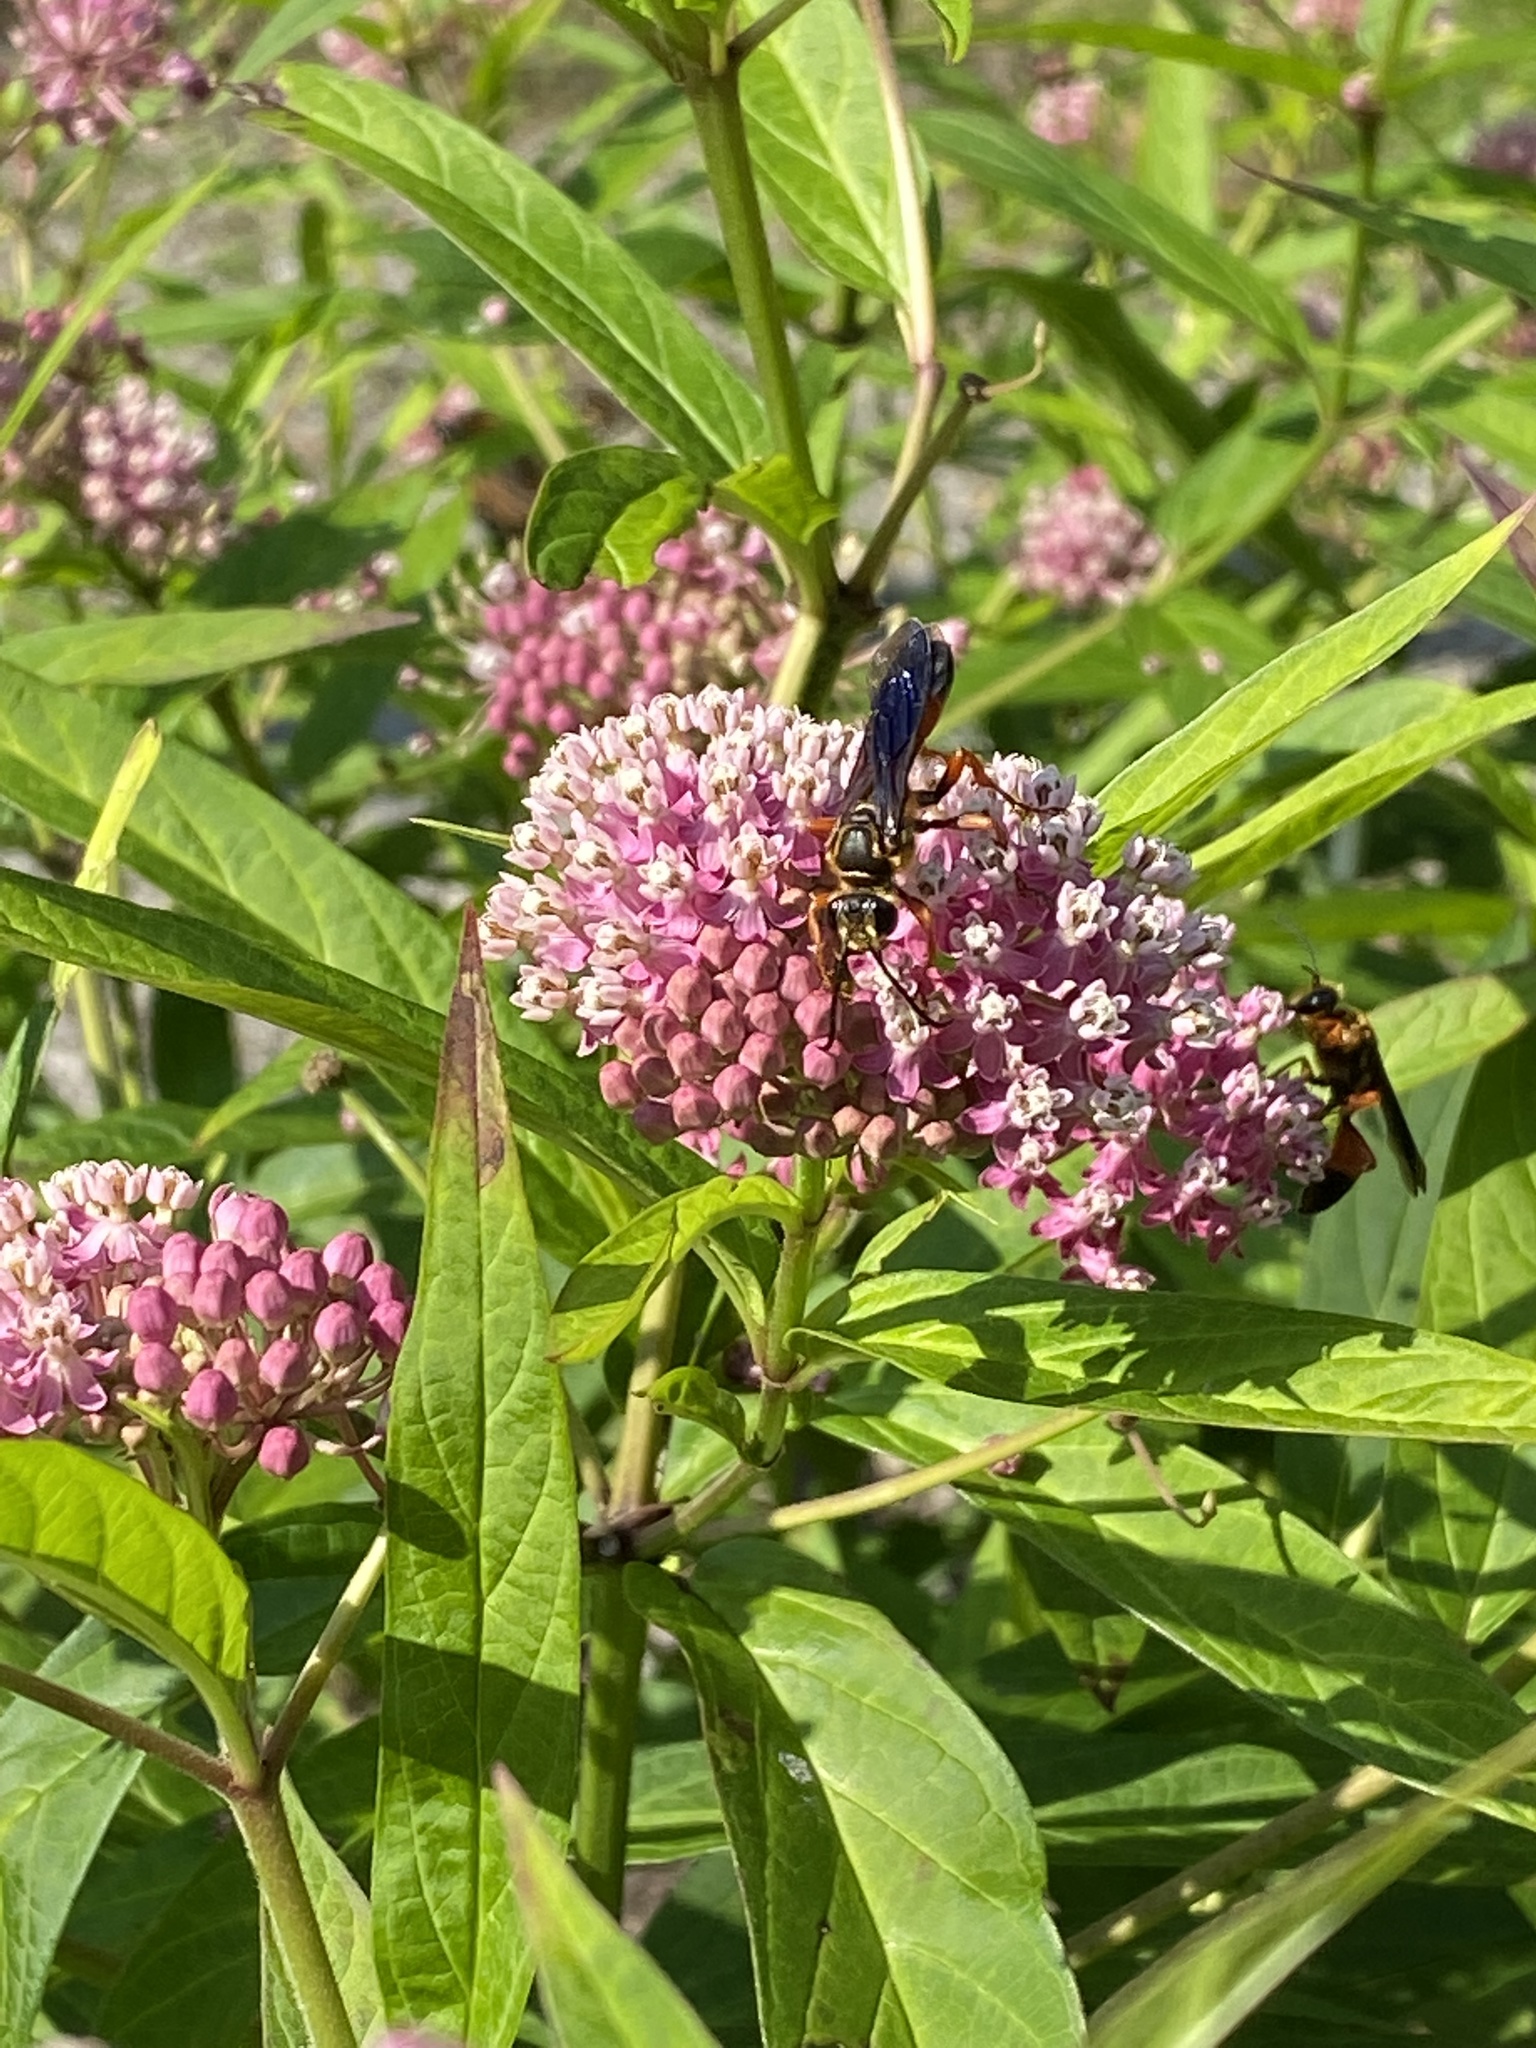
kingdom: Animalia
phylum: Arthropoda
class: Insecta
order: Hymenoptera
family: Sphecidae
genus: Sphex
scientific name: Sphex ichneumoneus
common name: Great golden digger wasp
